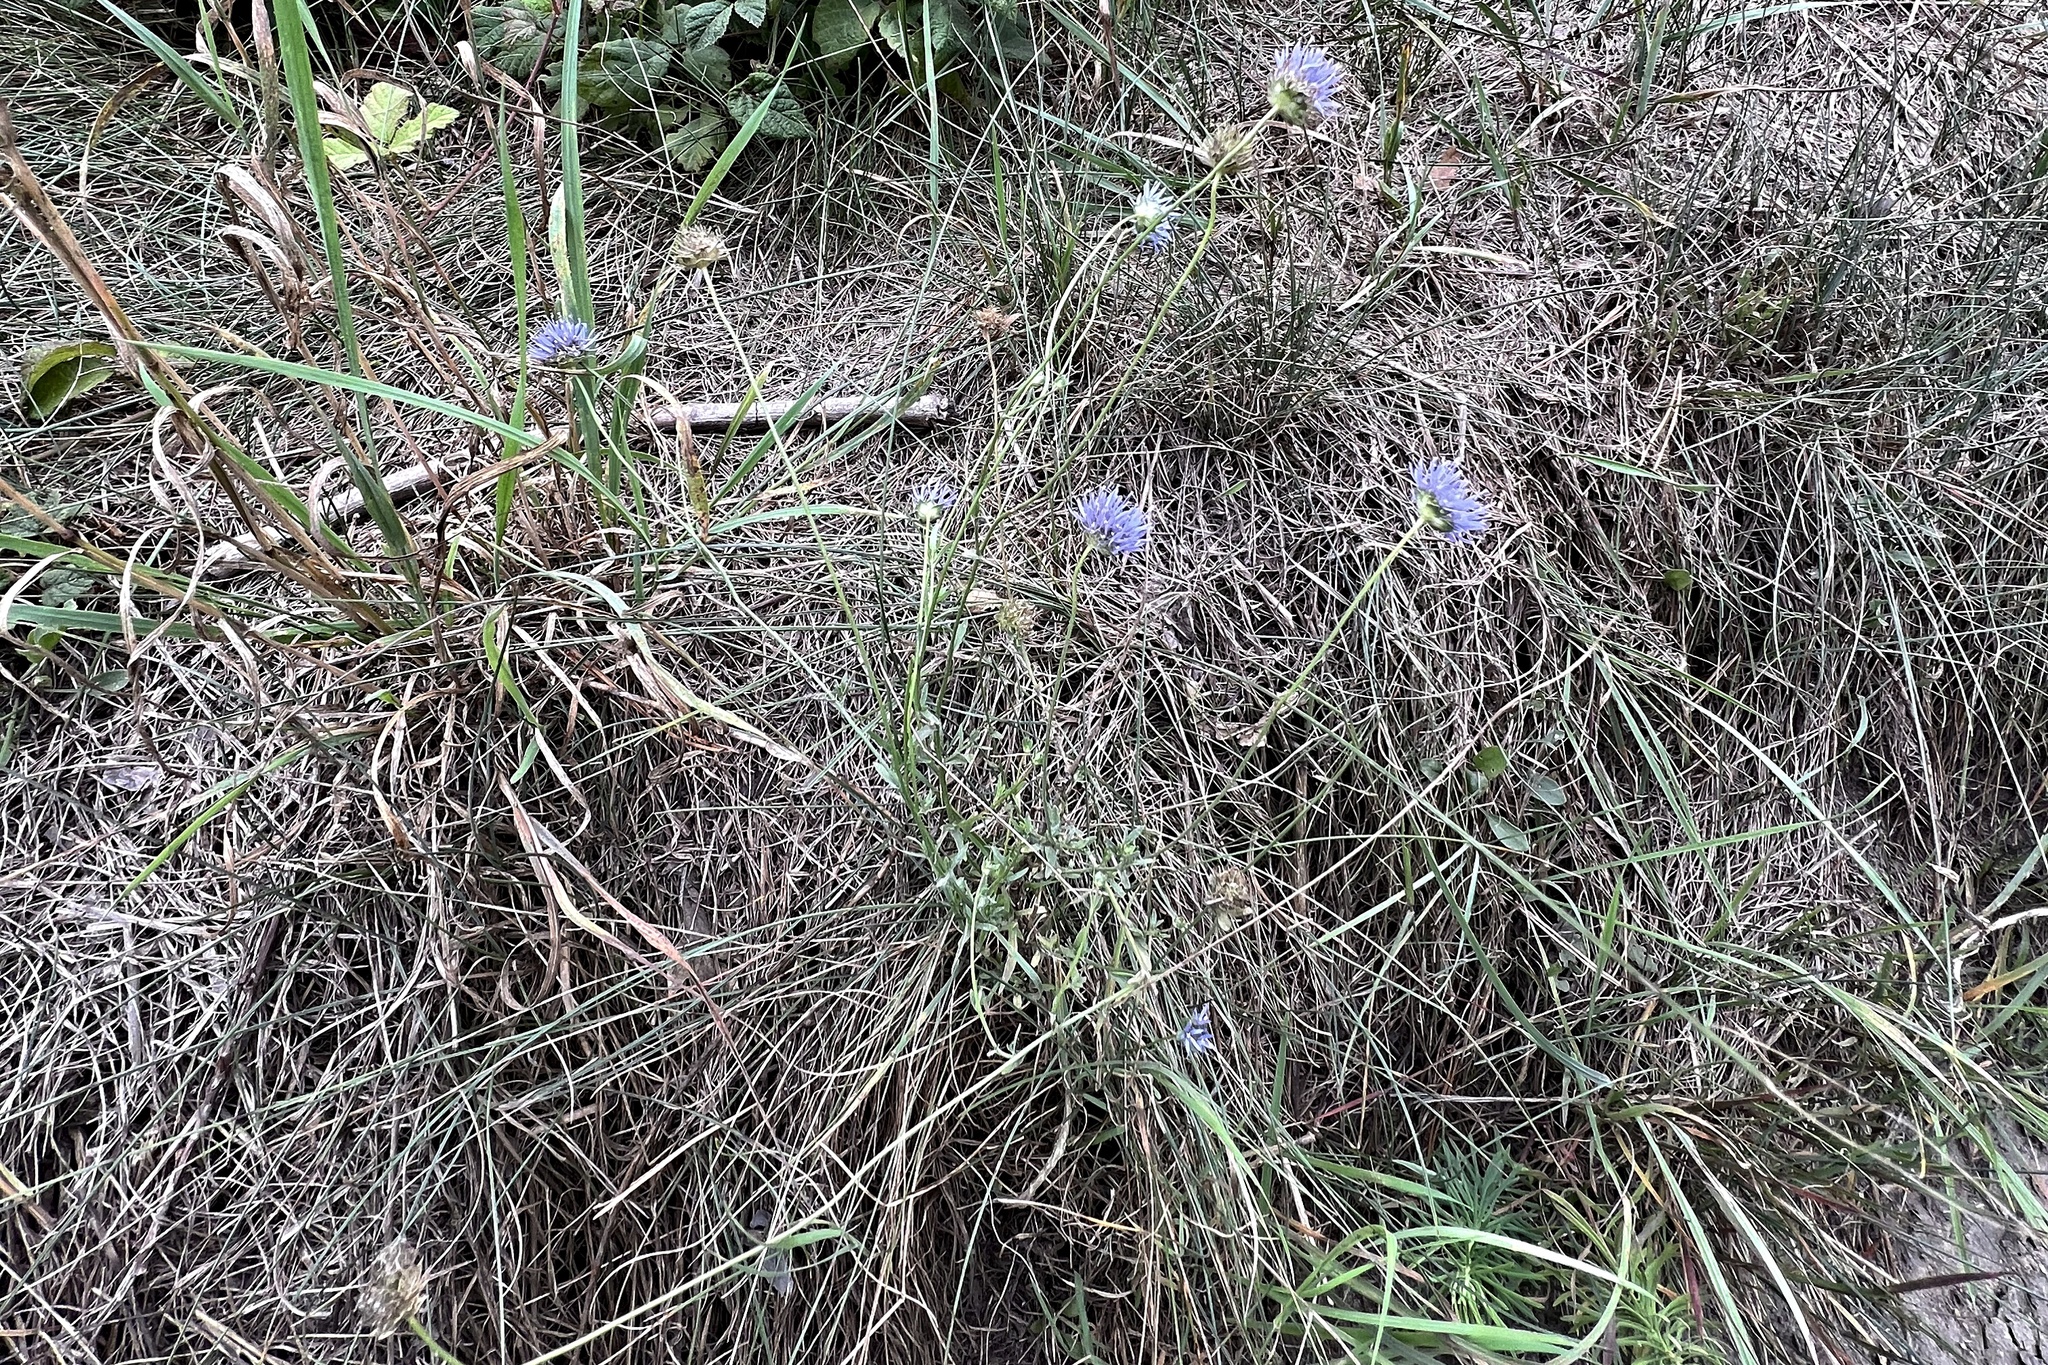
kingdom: Plantae
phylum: Tracheophyta
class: Magnoliopsida
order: Asterales
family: Campanulaceae
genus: Jasione
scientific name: Jasione montana
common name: Sheep's-bit
